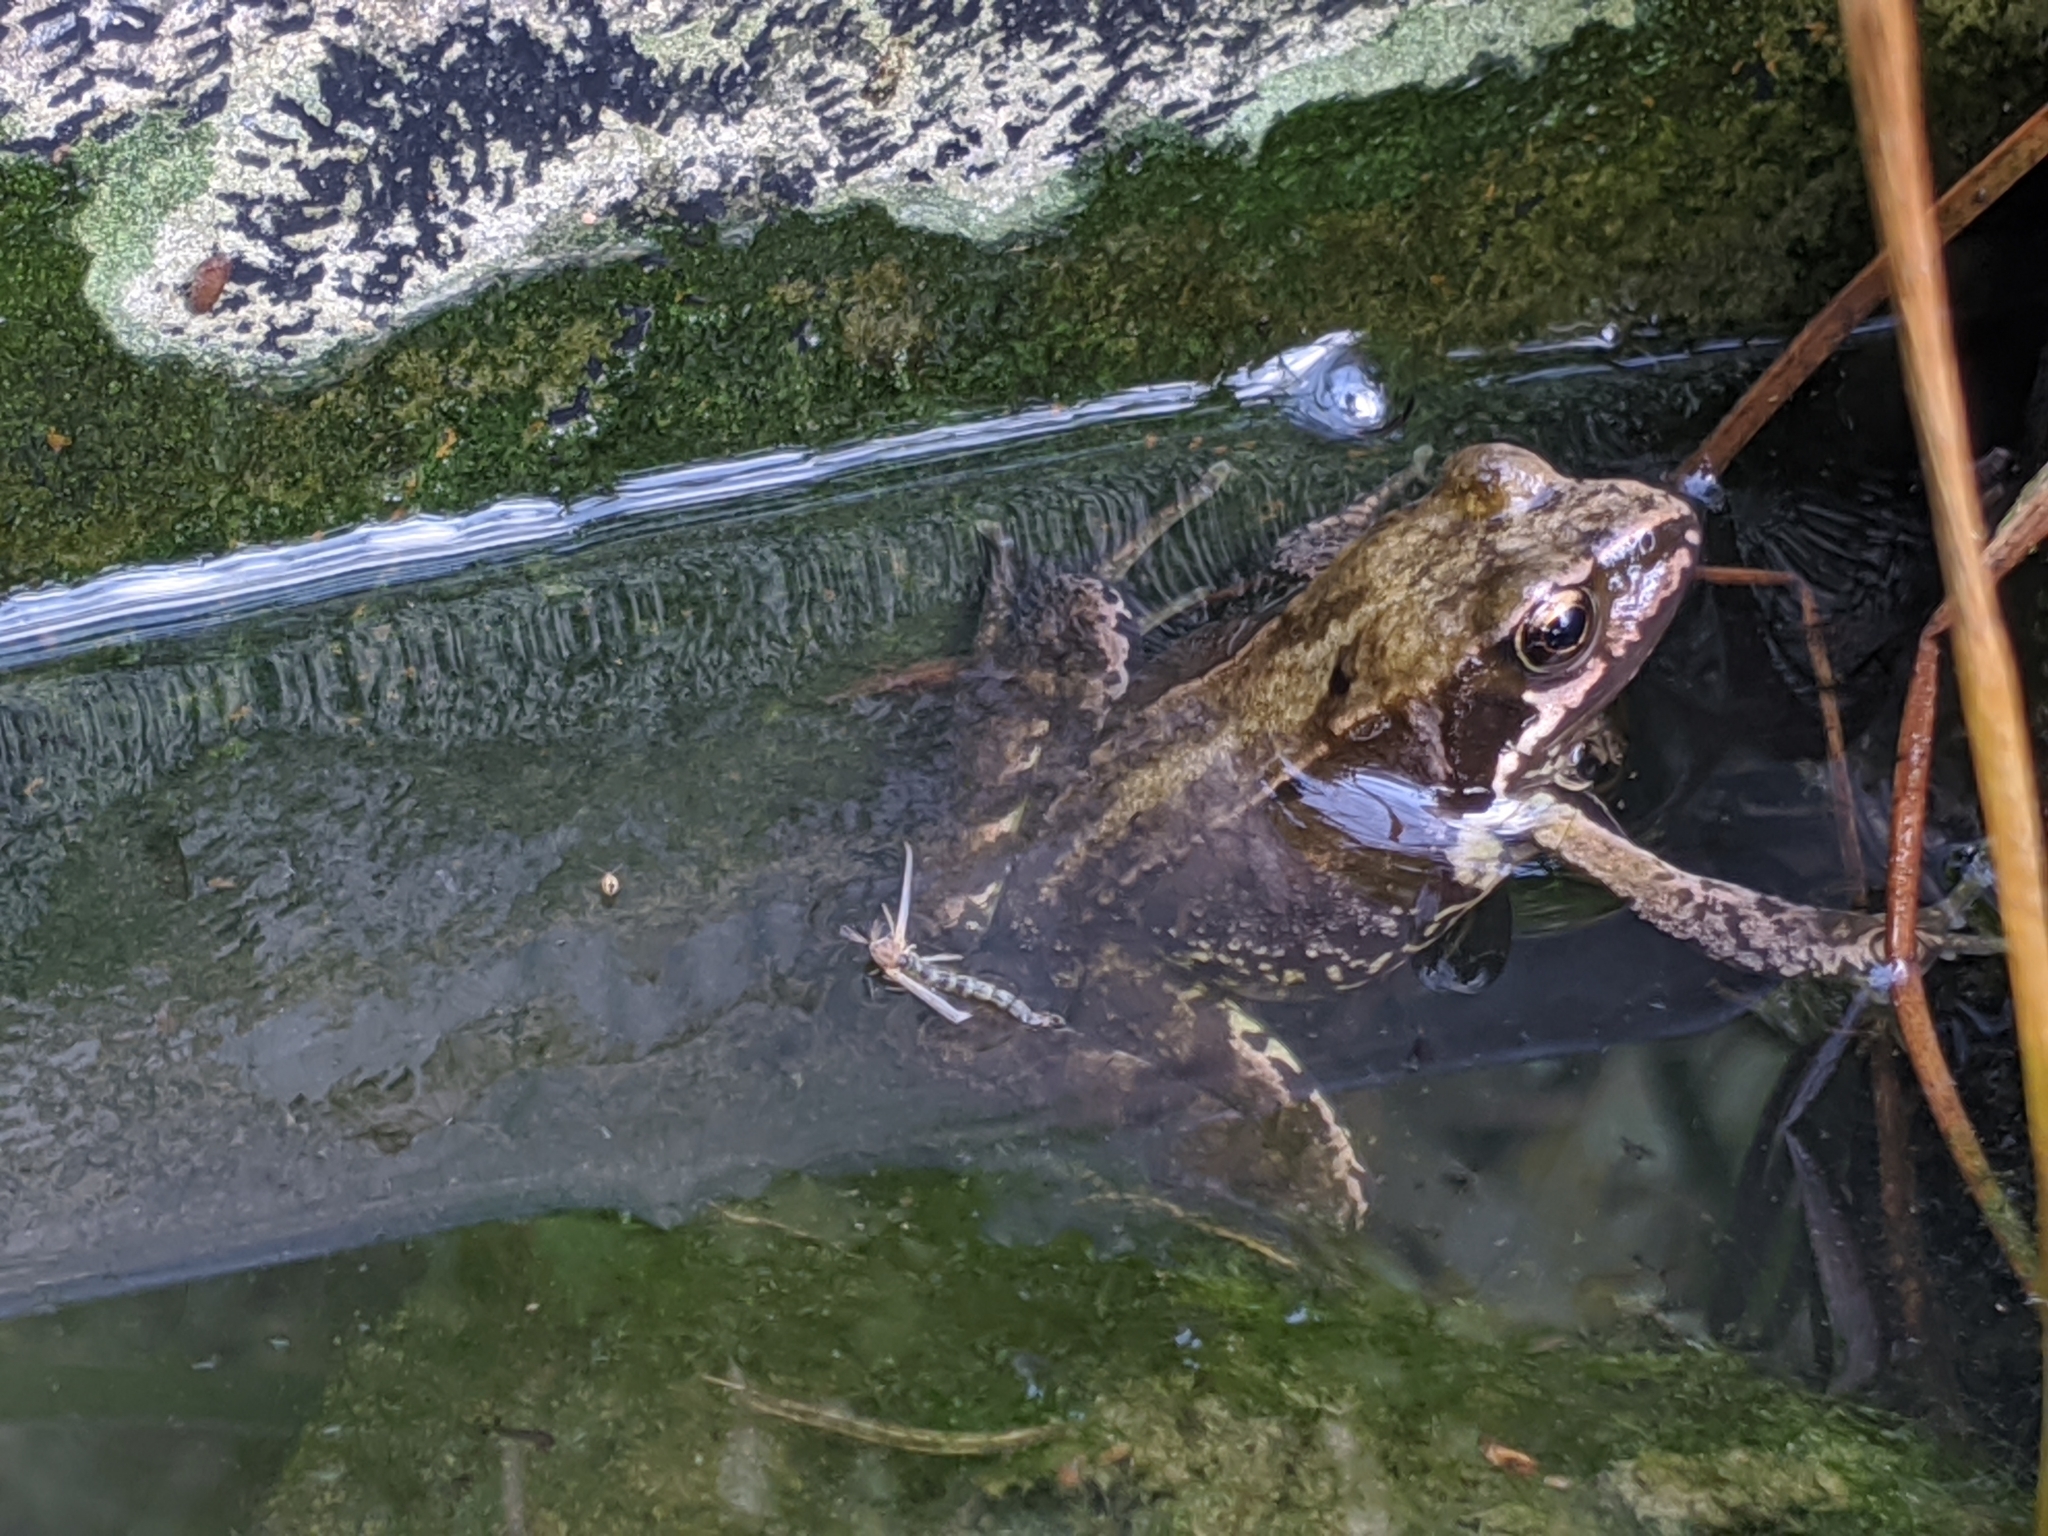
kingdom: Animalia
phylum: Chordata
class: Amphibia
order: Anura
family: Ranidae
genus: Rana
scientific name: Rana temporaria
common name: Common frog
